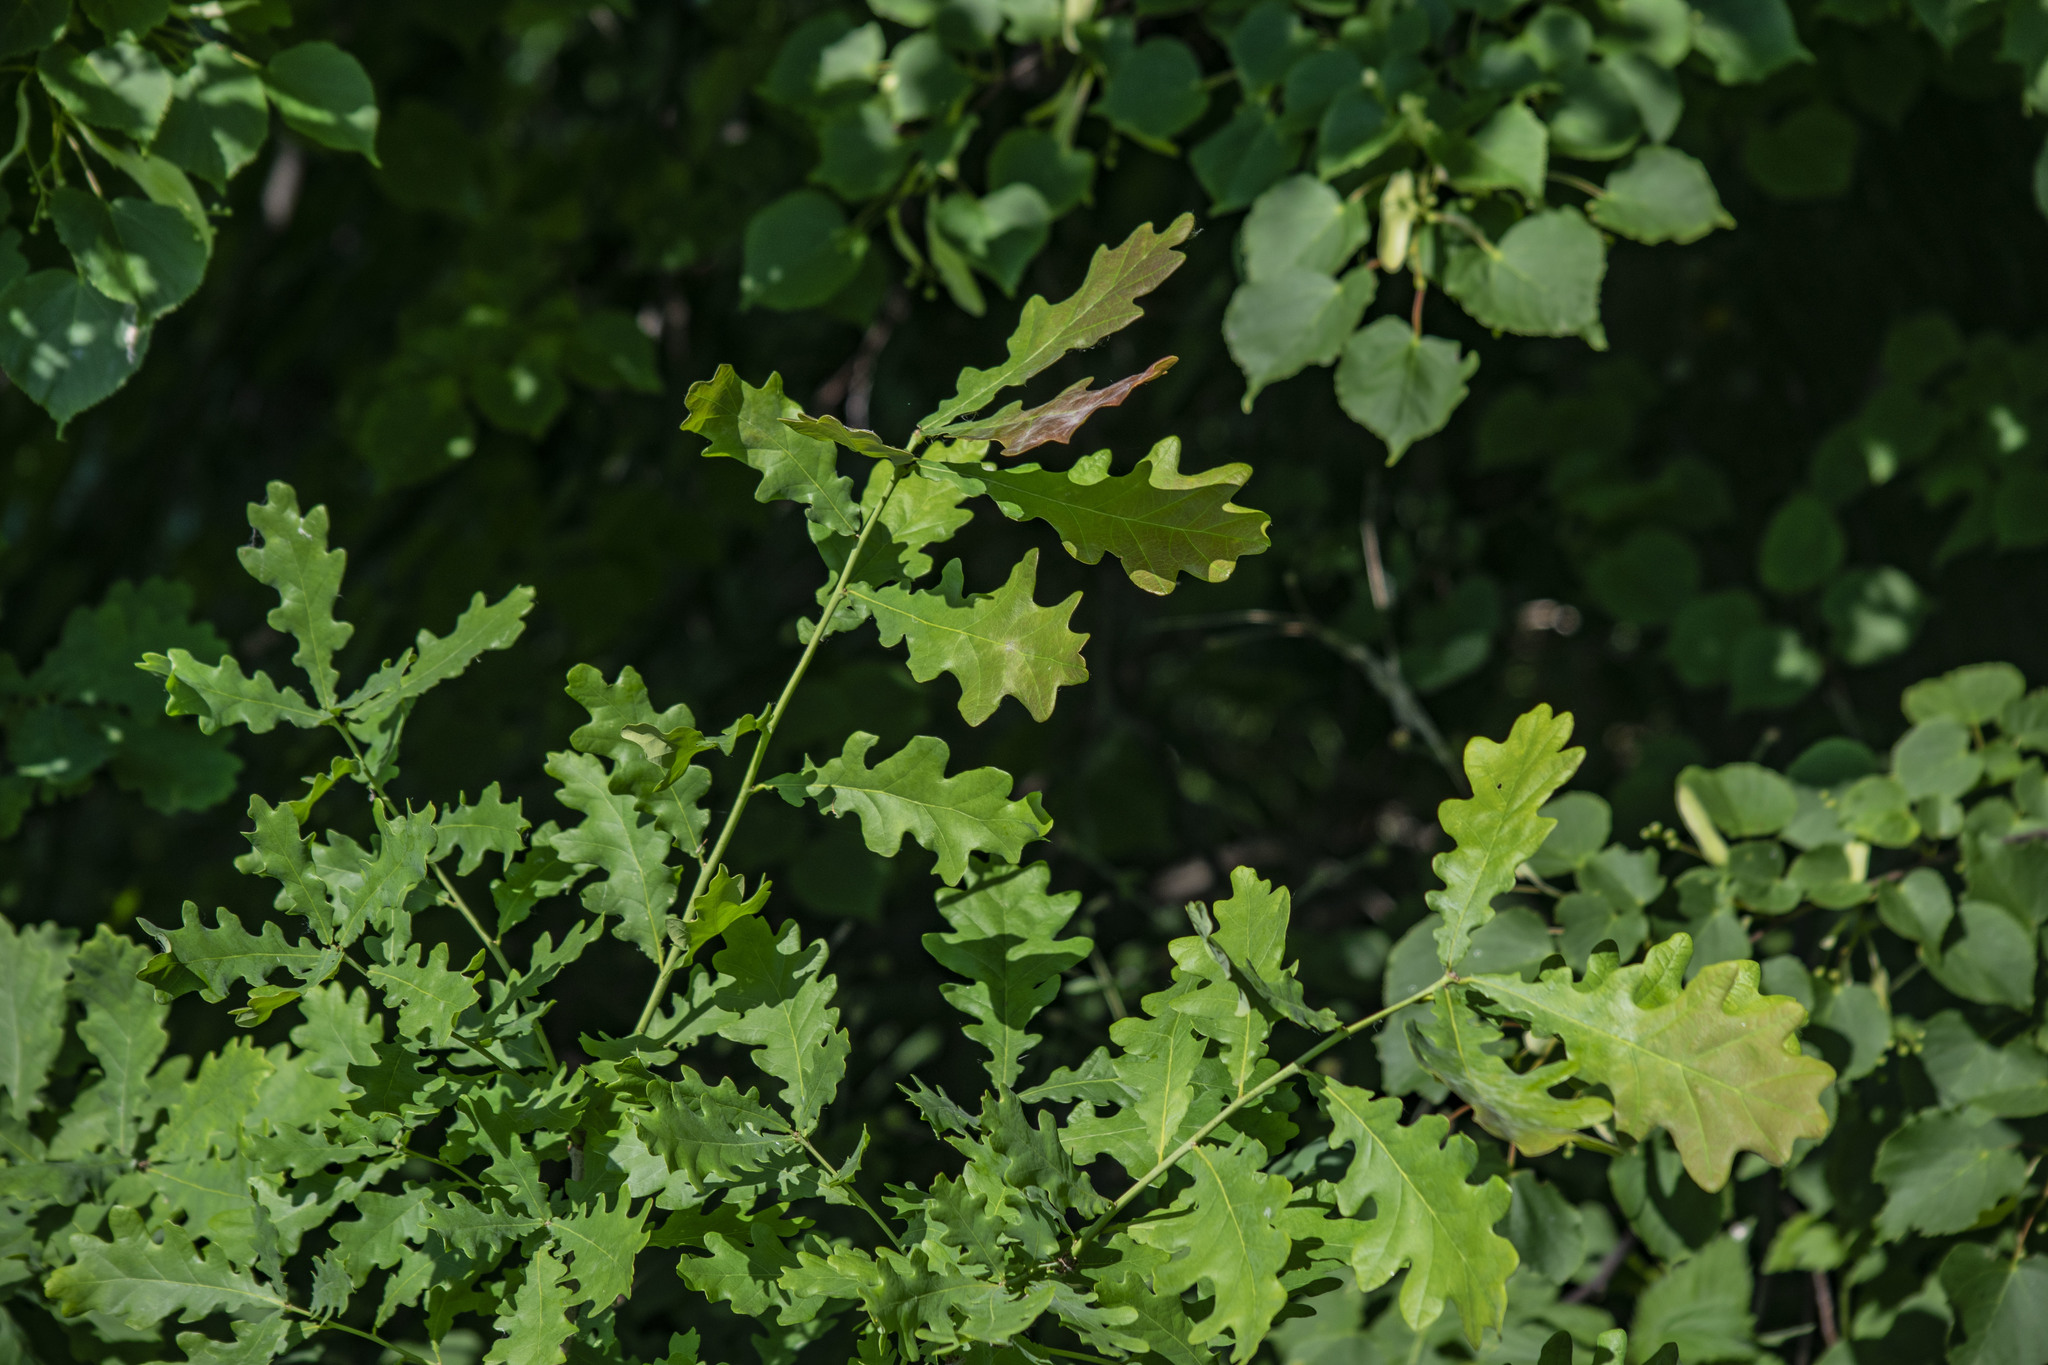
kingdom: Plantae
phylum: Tracheophyta
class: Magnoliopsida
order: Fagales
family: Fagaceae
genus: Quercus
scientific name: Quercus robur
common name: Pedunculate oak
